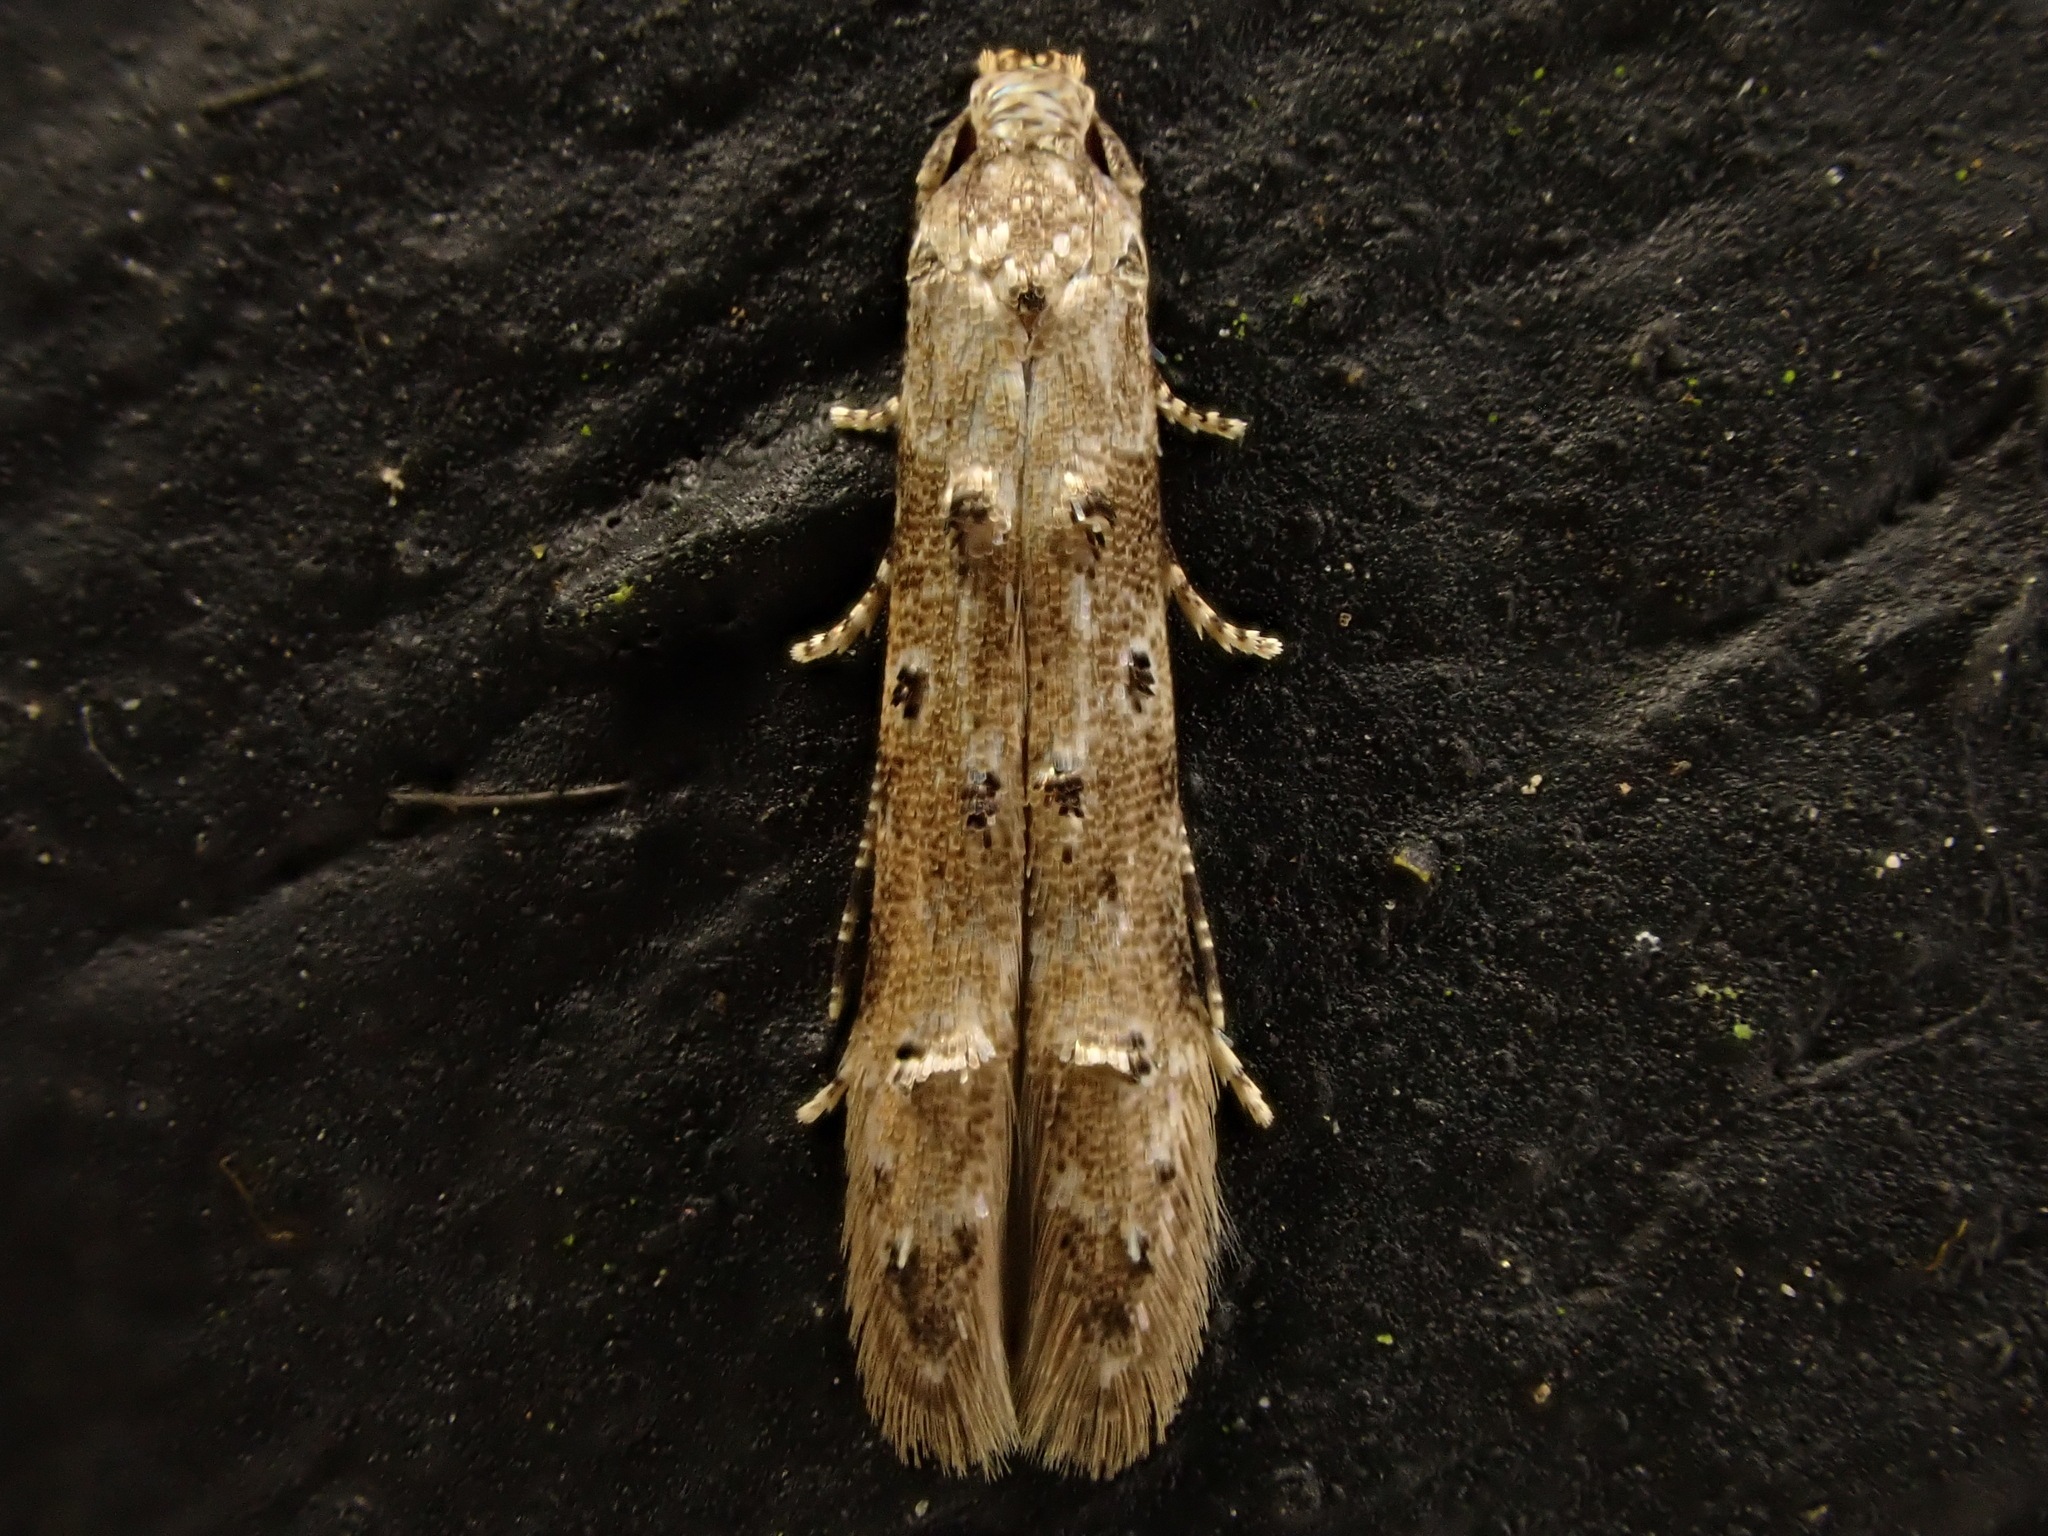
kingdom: Animalia
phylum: Arthropoda
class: Insecta
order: Lepidoptera
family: Elachistidae
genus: Microcolona
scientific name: Microcolona limodes
